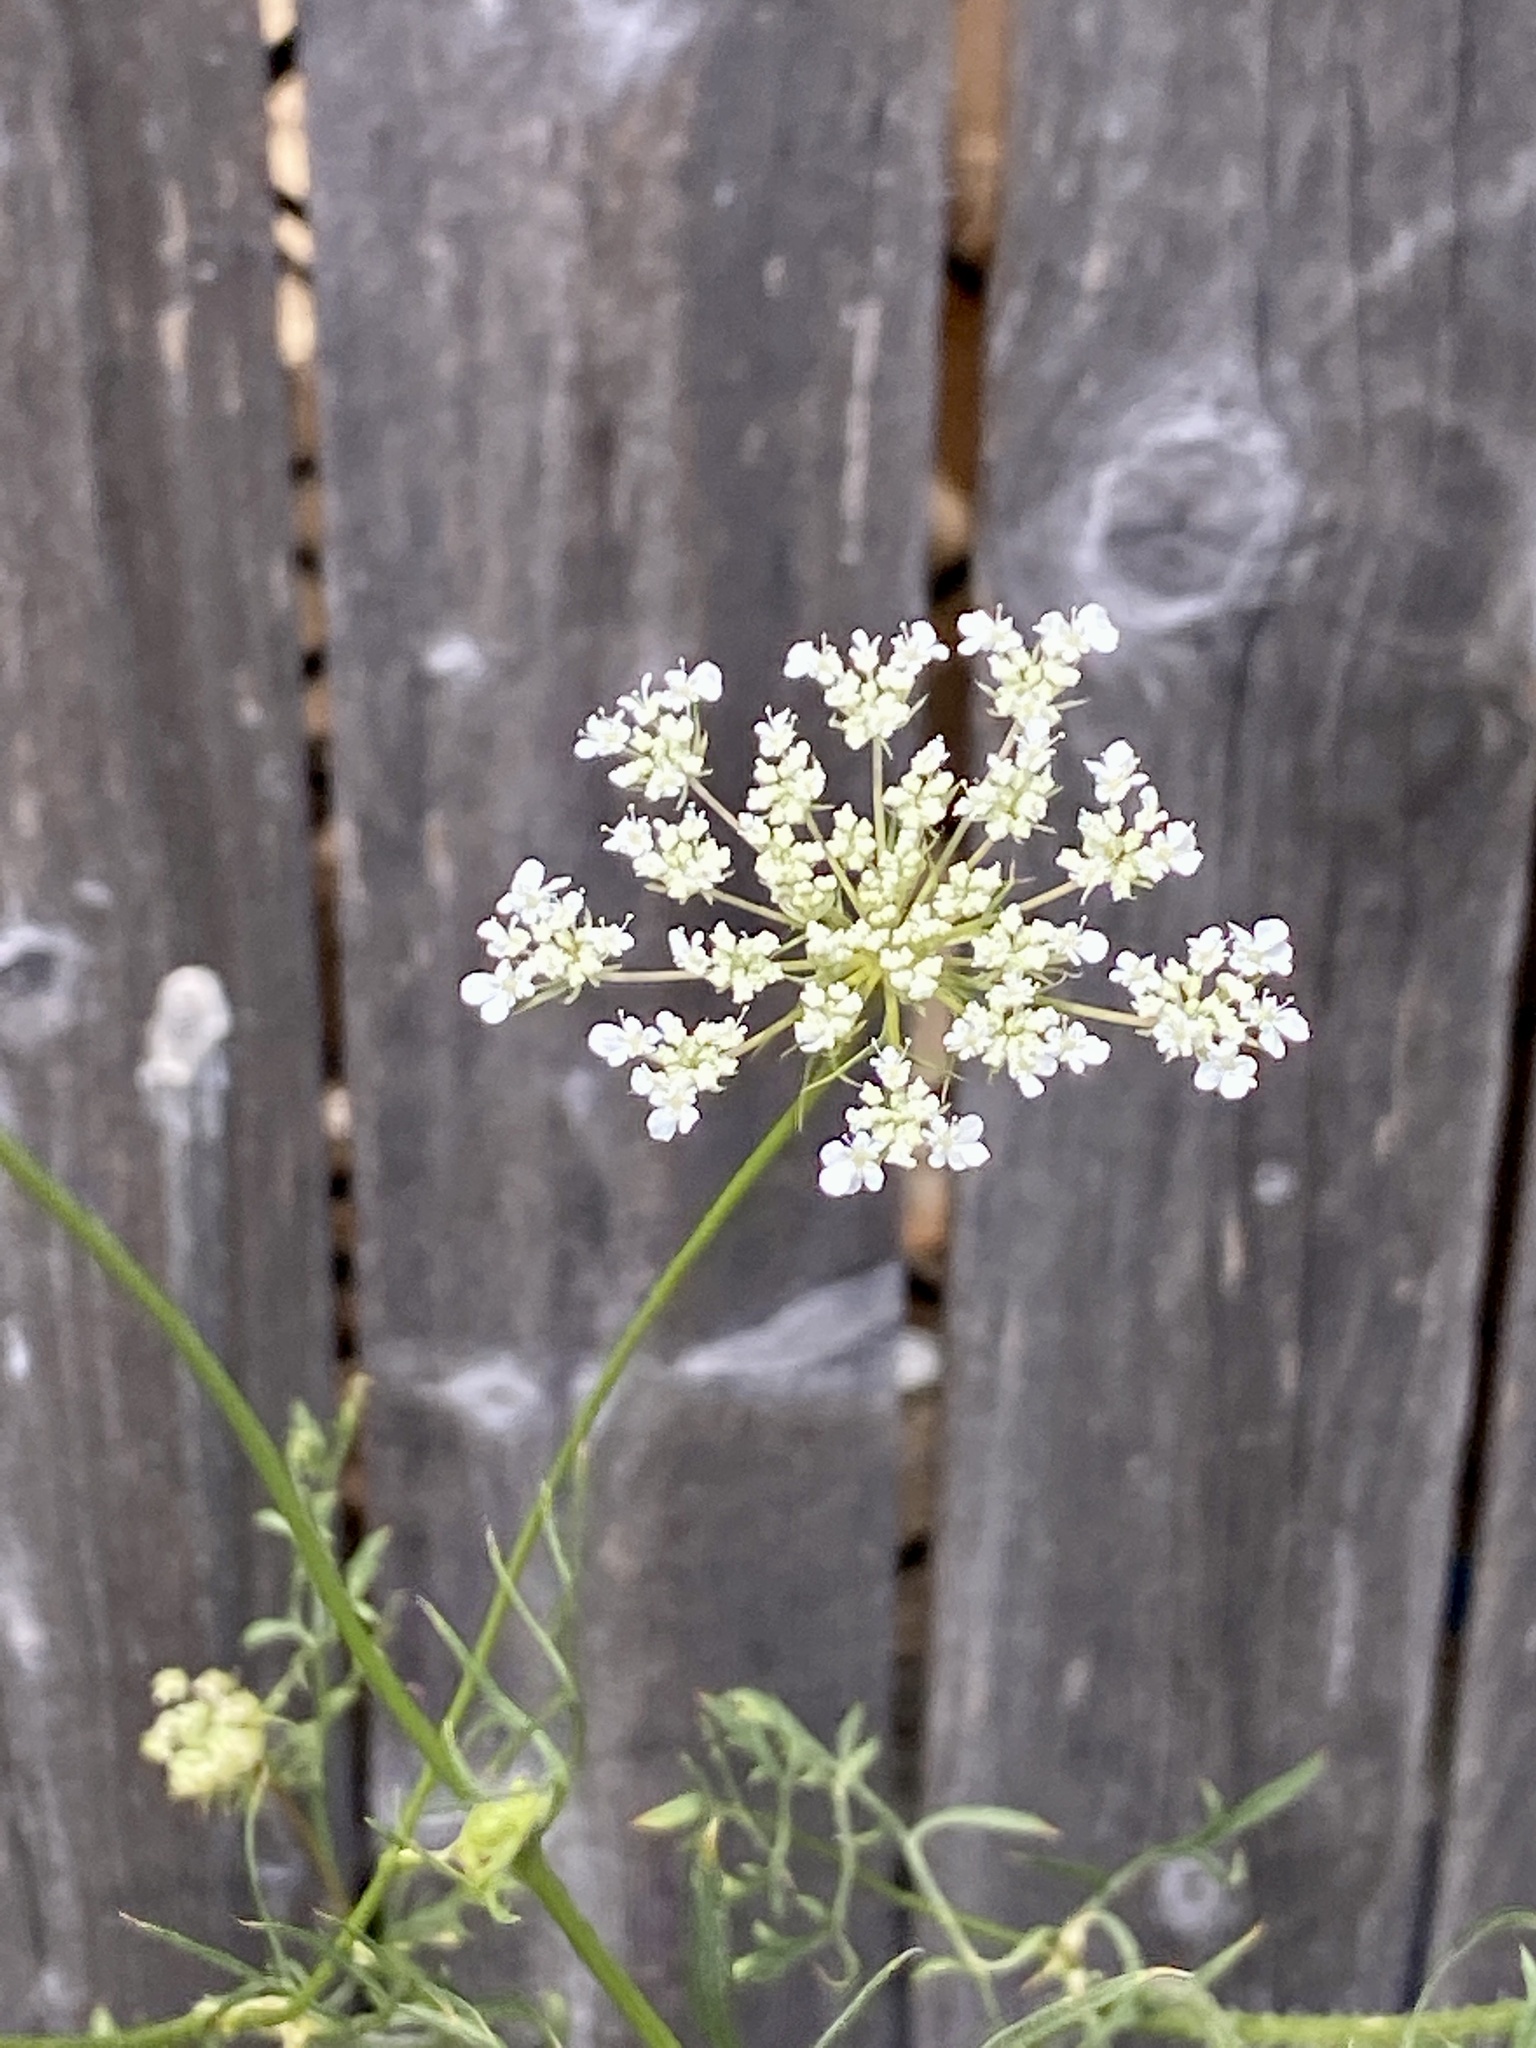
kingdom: Plantae
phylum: Tracheophyta
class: Magnoliopsida
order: Apiales
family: Apiaceae
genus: Daucus
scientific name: Daucus carota
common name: Wild carrot
